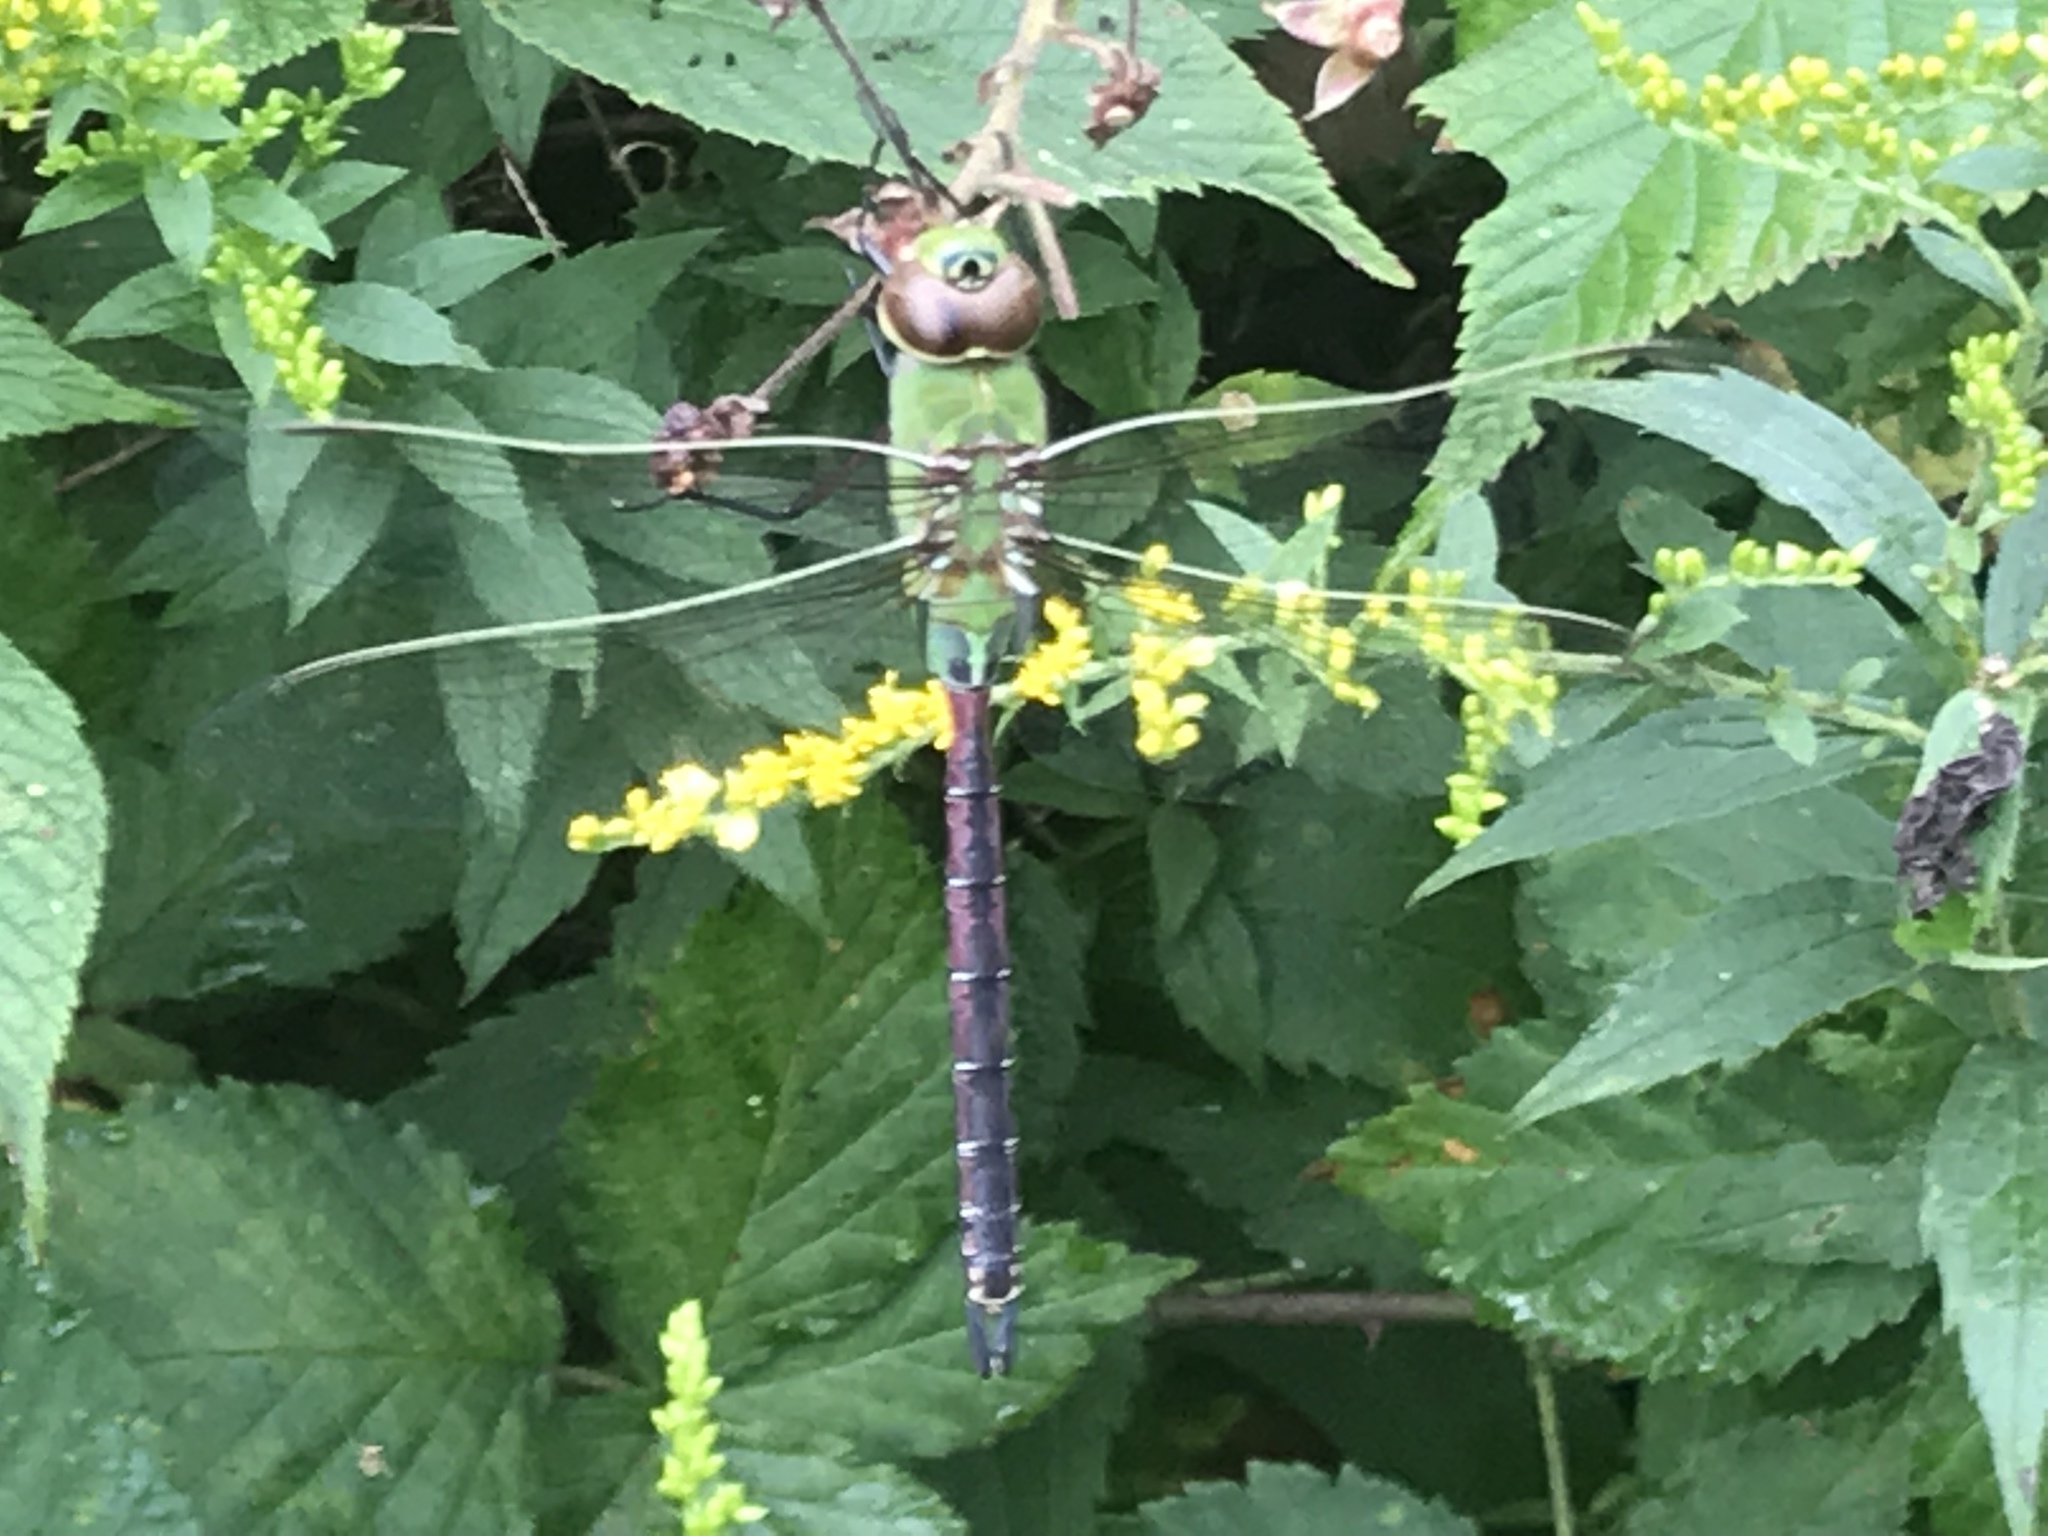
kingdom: Animalia
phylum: Arthropoda
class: Insecta
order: Odonata
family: Aeshnidae
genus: Anax
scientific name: Anax junius
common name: Common green darner
